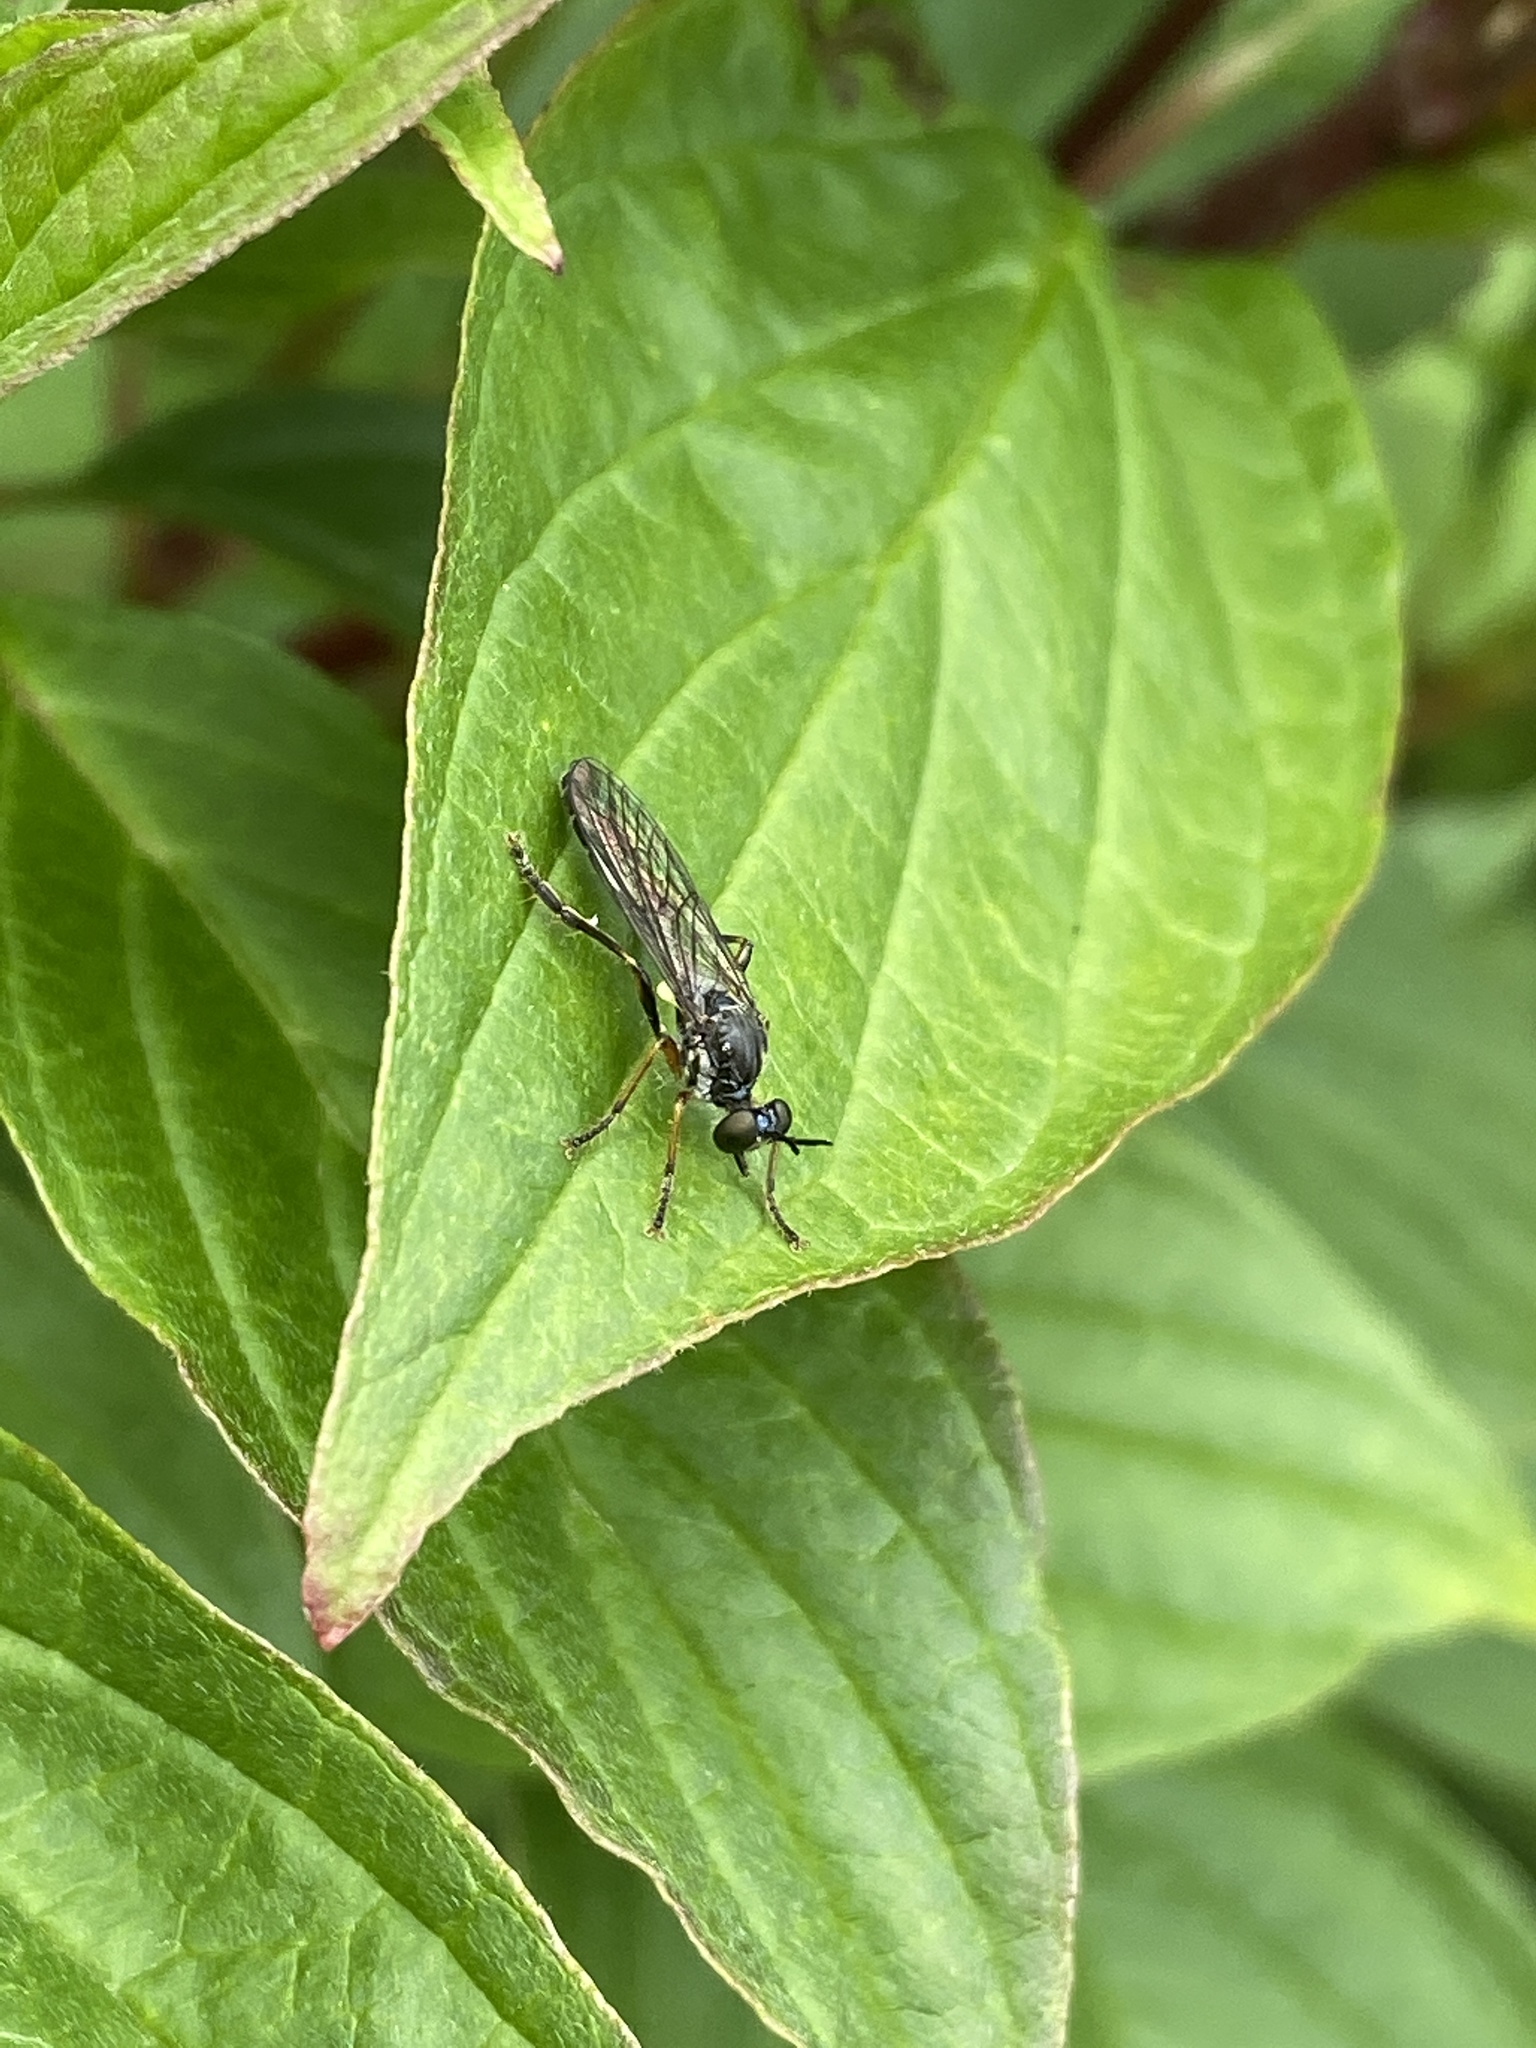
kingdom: Animalia
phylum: Arthropoda
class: Insecta
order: Diptera
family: Asilidae
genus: Dioctria
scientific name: Dioctria hyalipennis
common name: Stripe-legged robberfly
